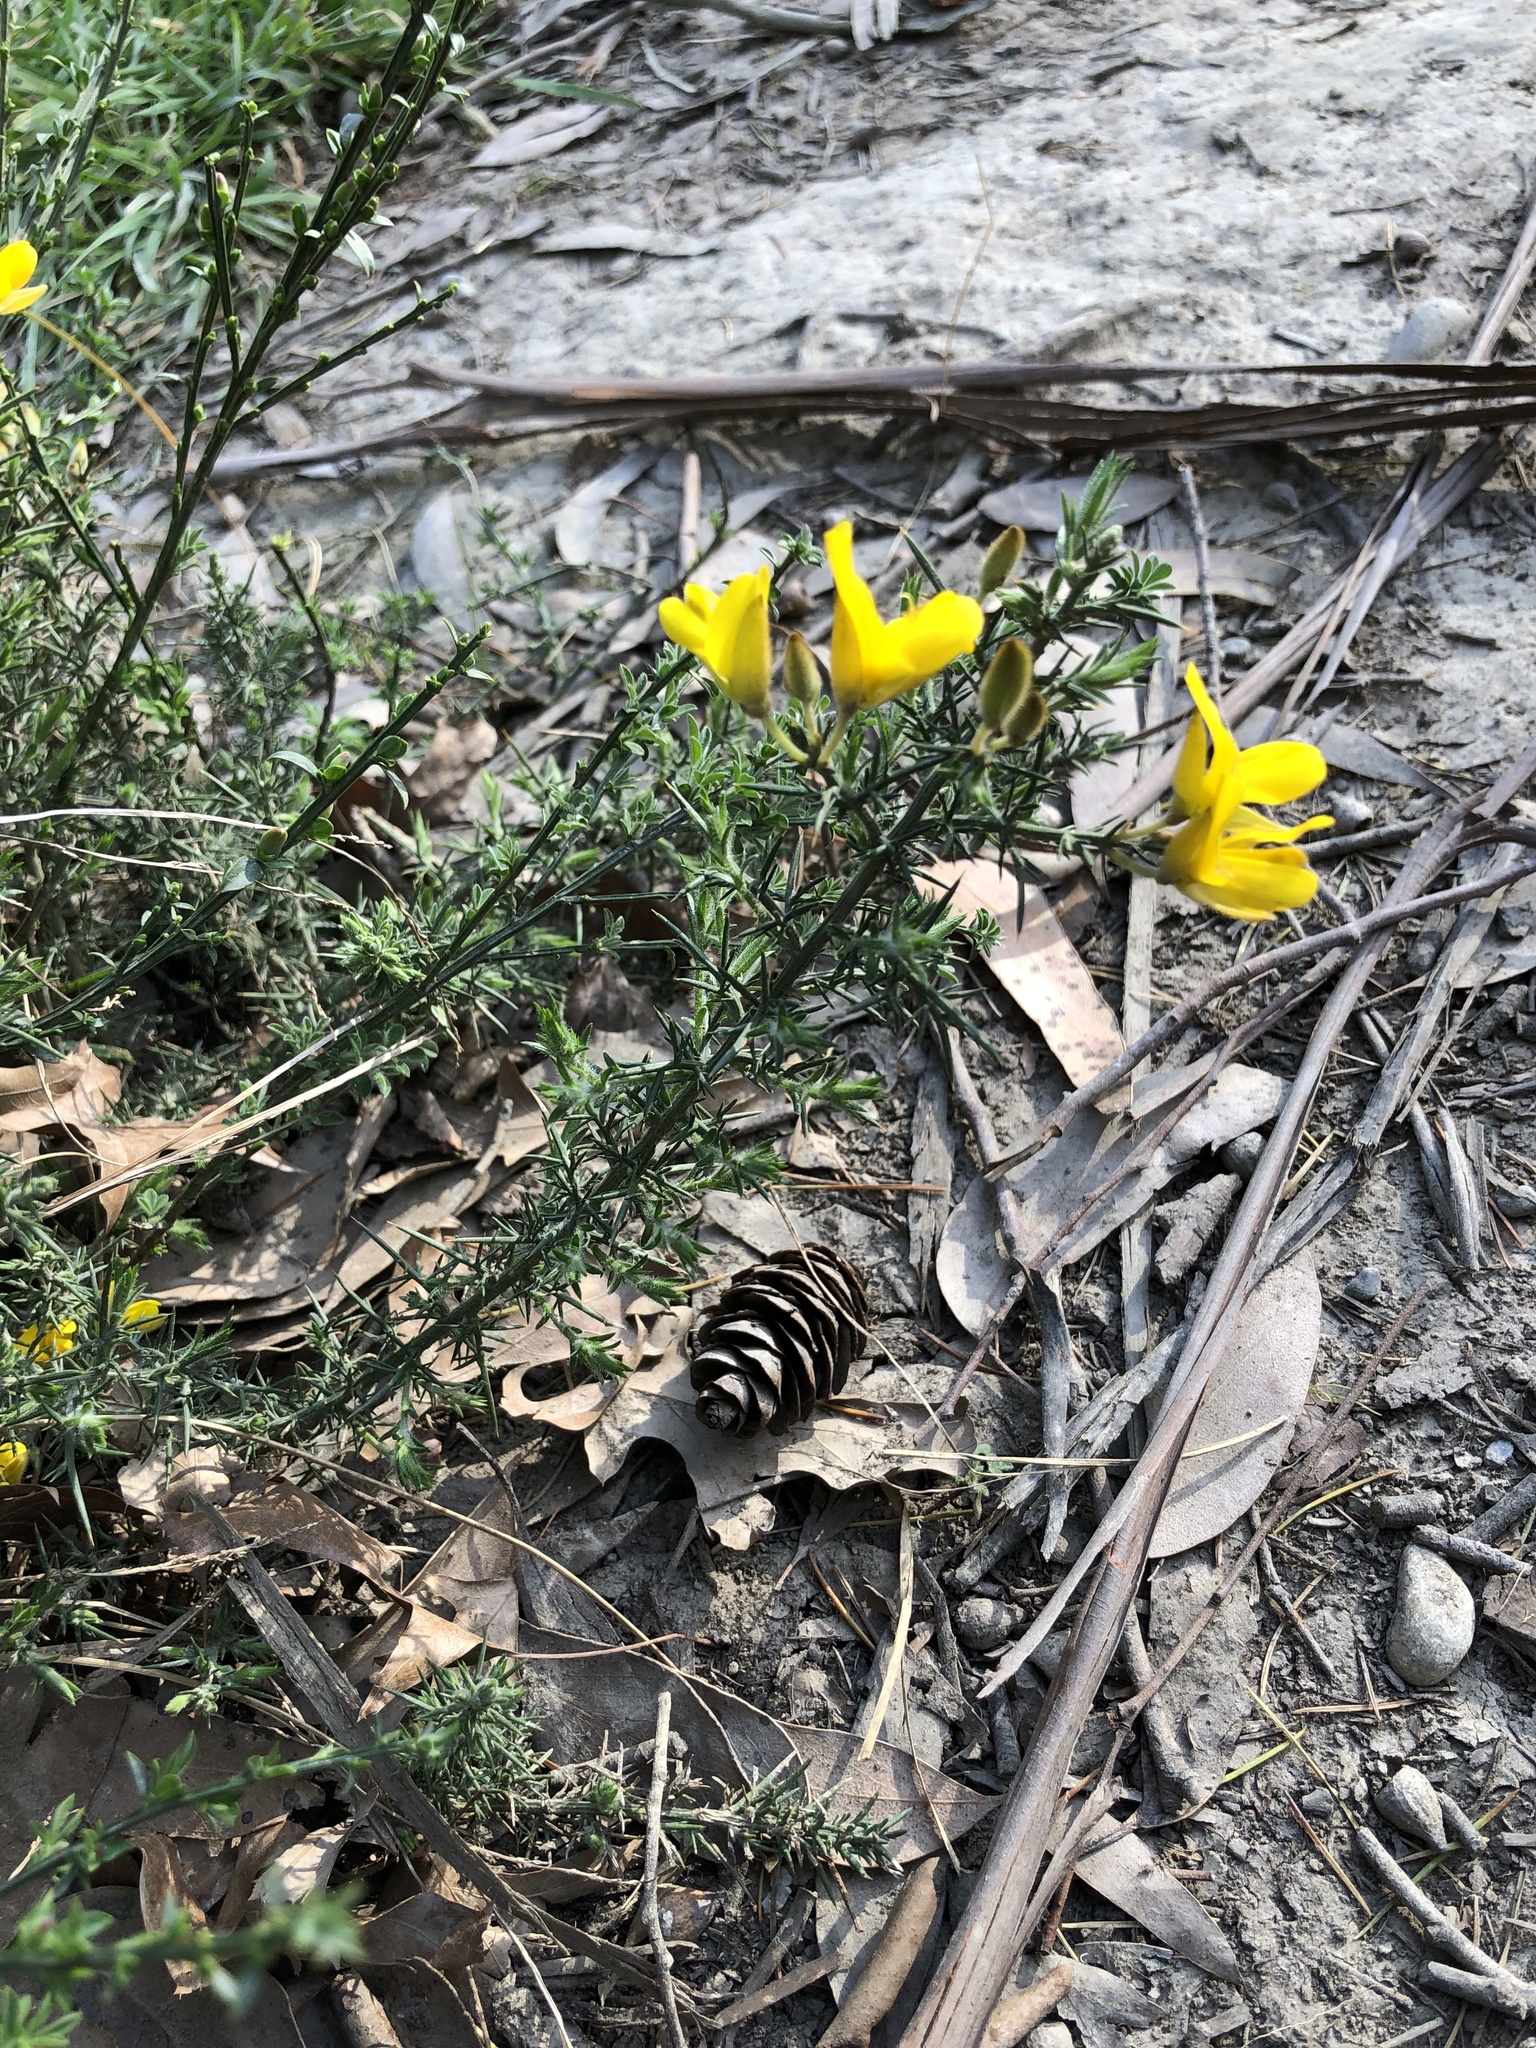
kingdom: Plantae
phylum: Tracheophyta
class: Magnoliopsida
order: Fabales
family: Fabaceae
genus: Ulex
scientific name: Ulex europaeus
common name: Common gorse
